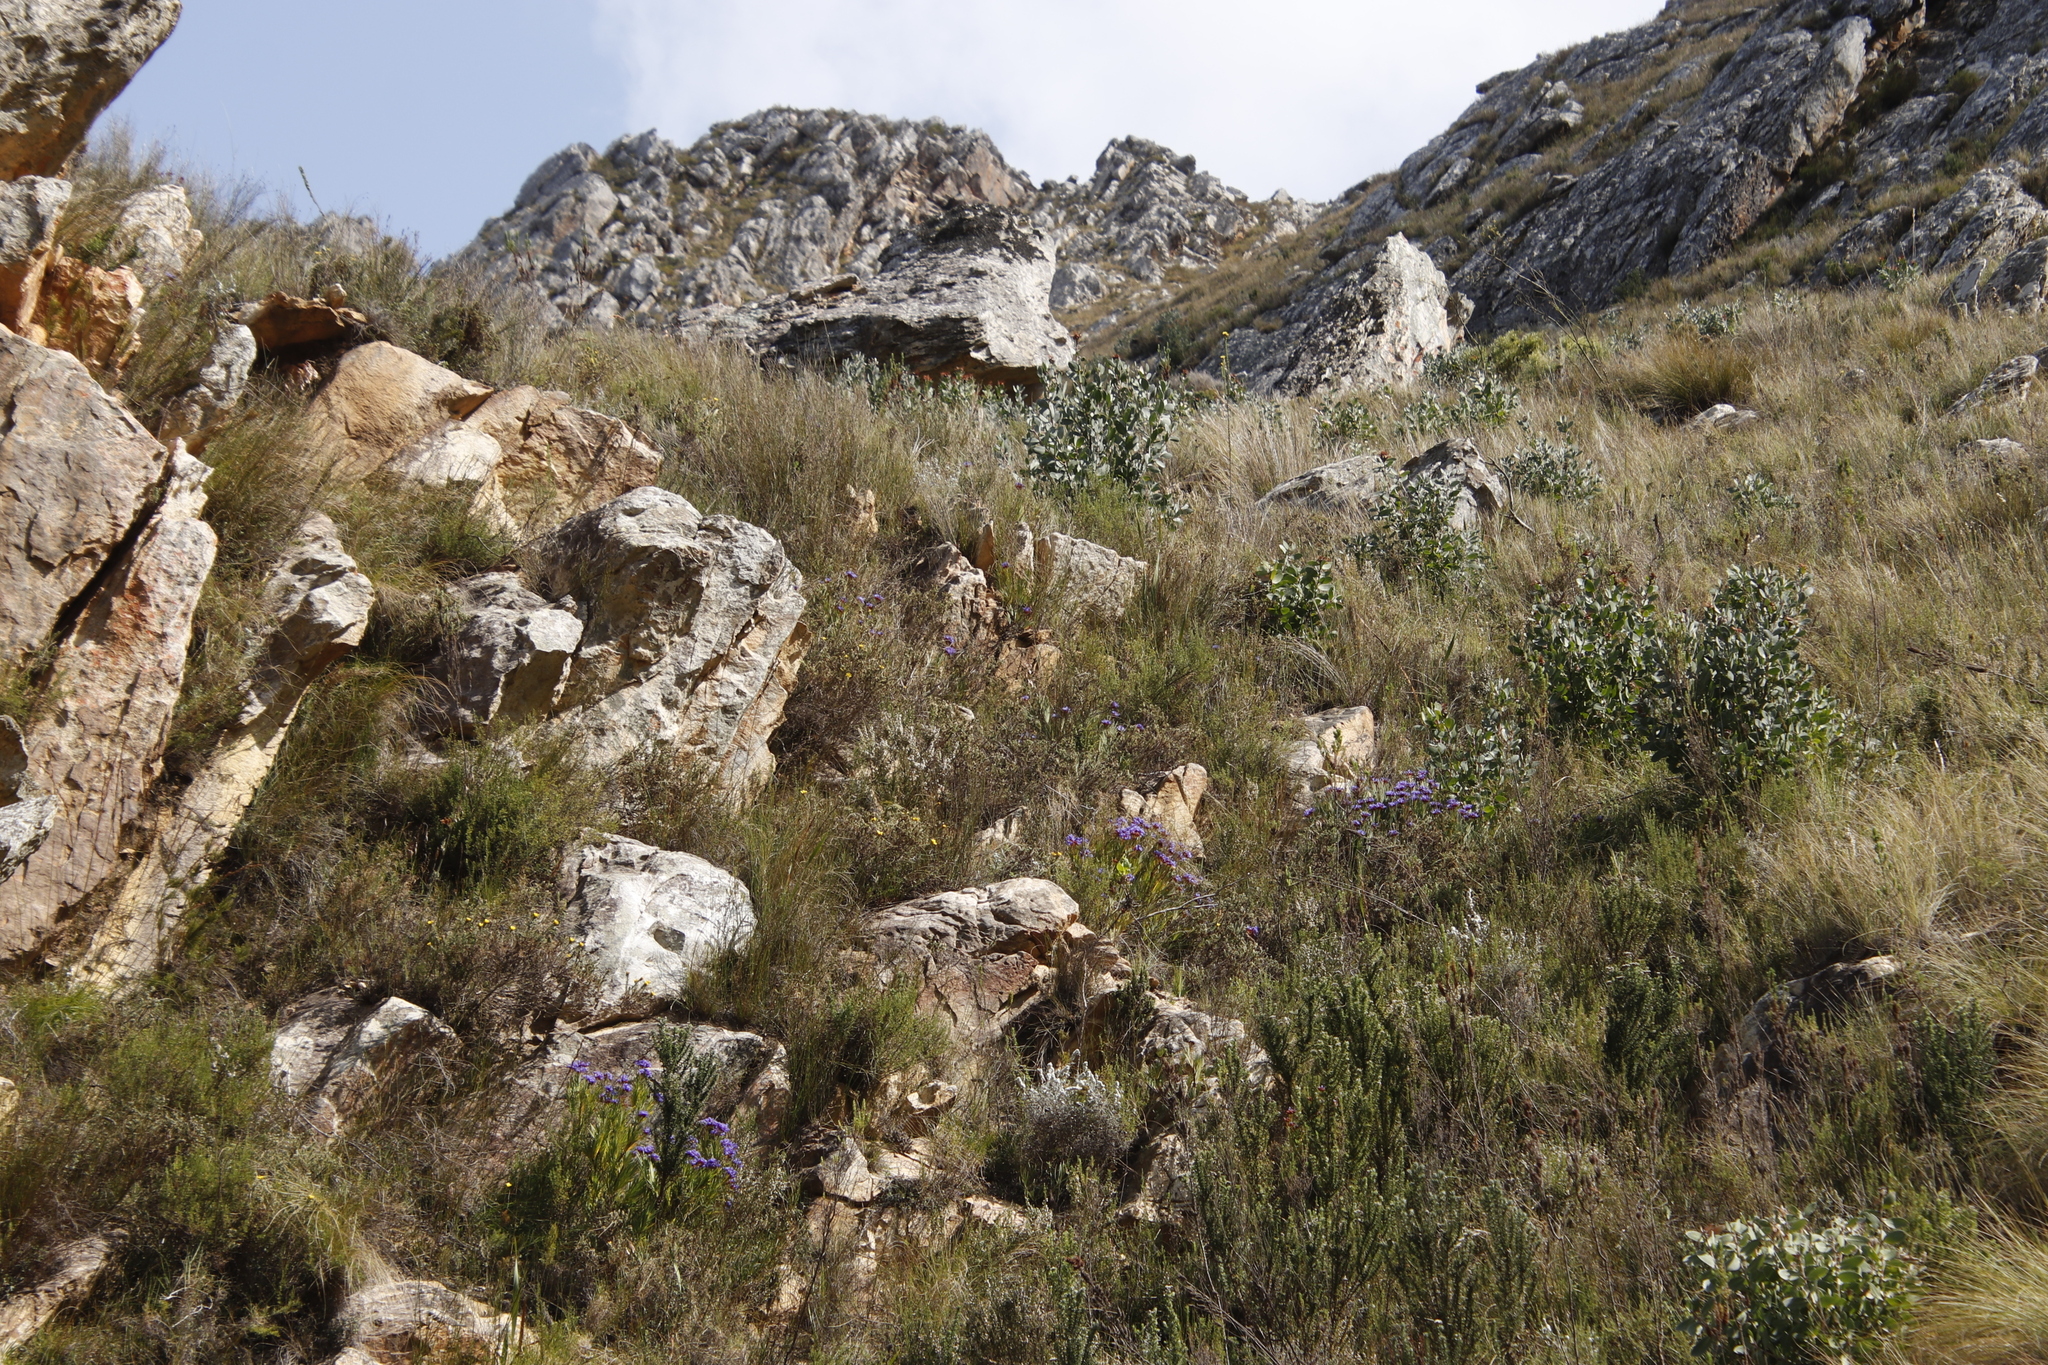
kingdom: Plantae
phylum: Tracheophyta
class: Magnoliopsida
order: Proteales
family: Proteaceae
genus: Protea
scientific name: Protea punctata
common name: Water sugarbush
